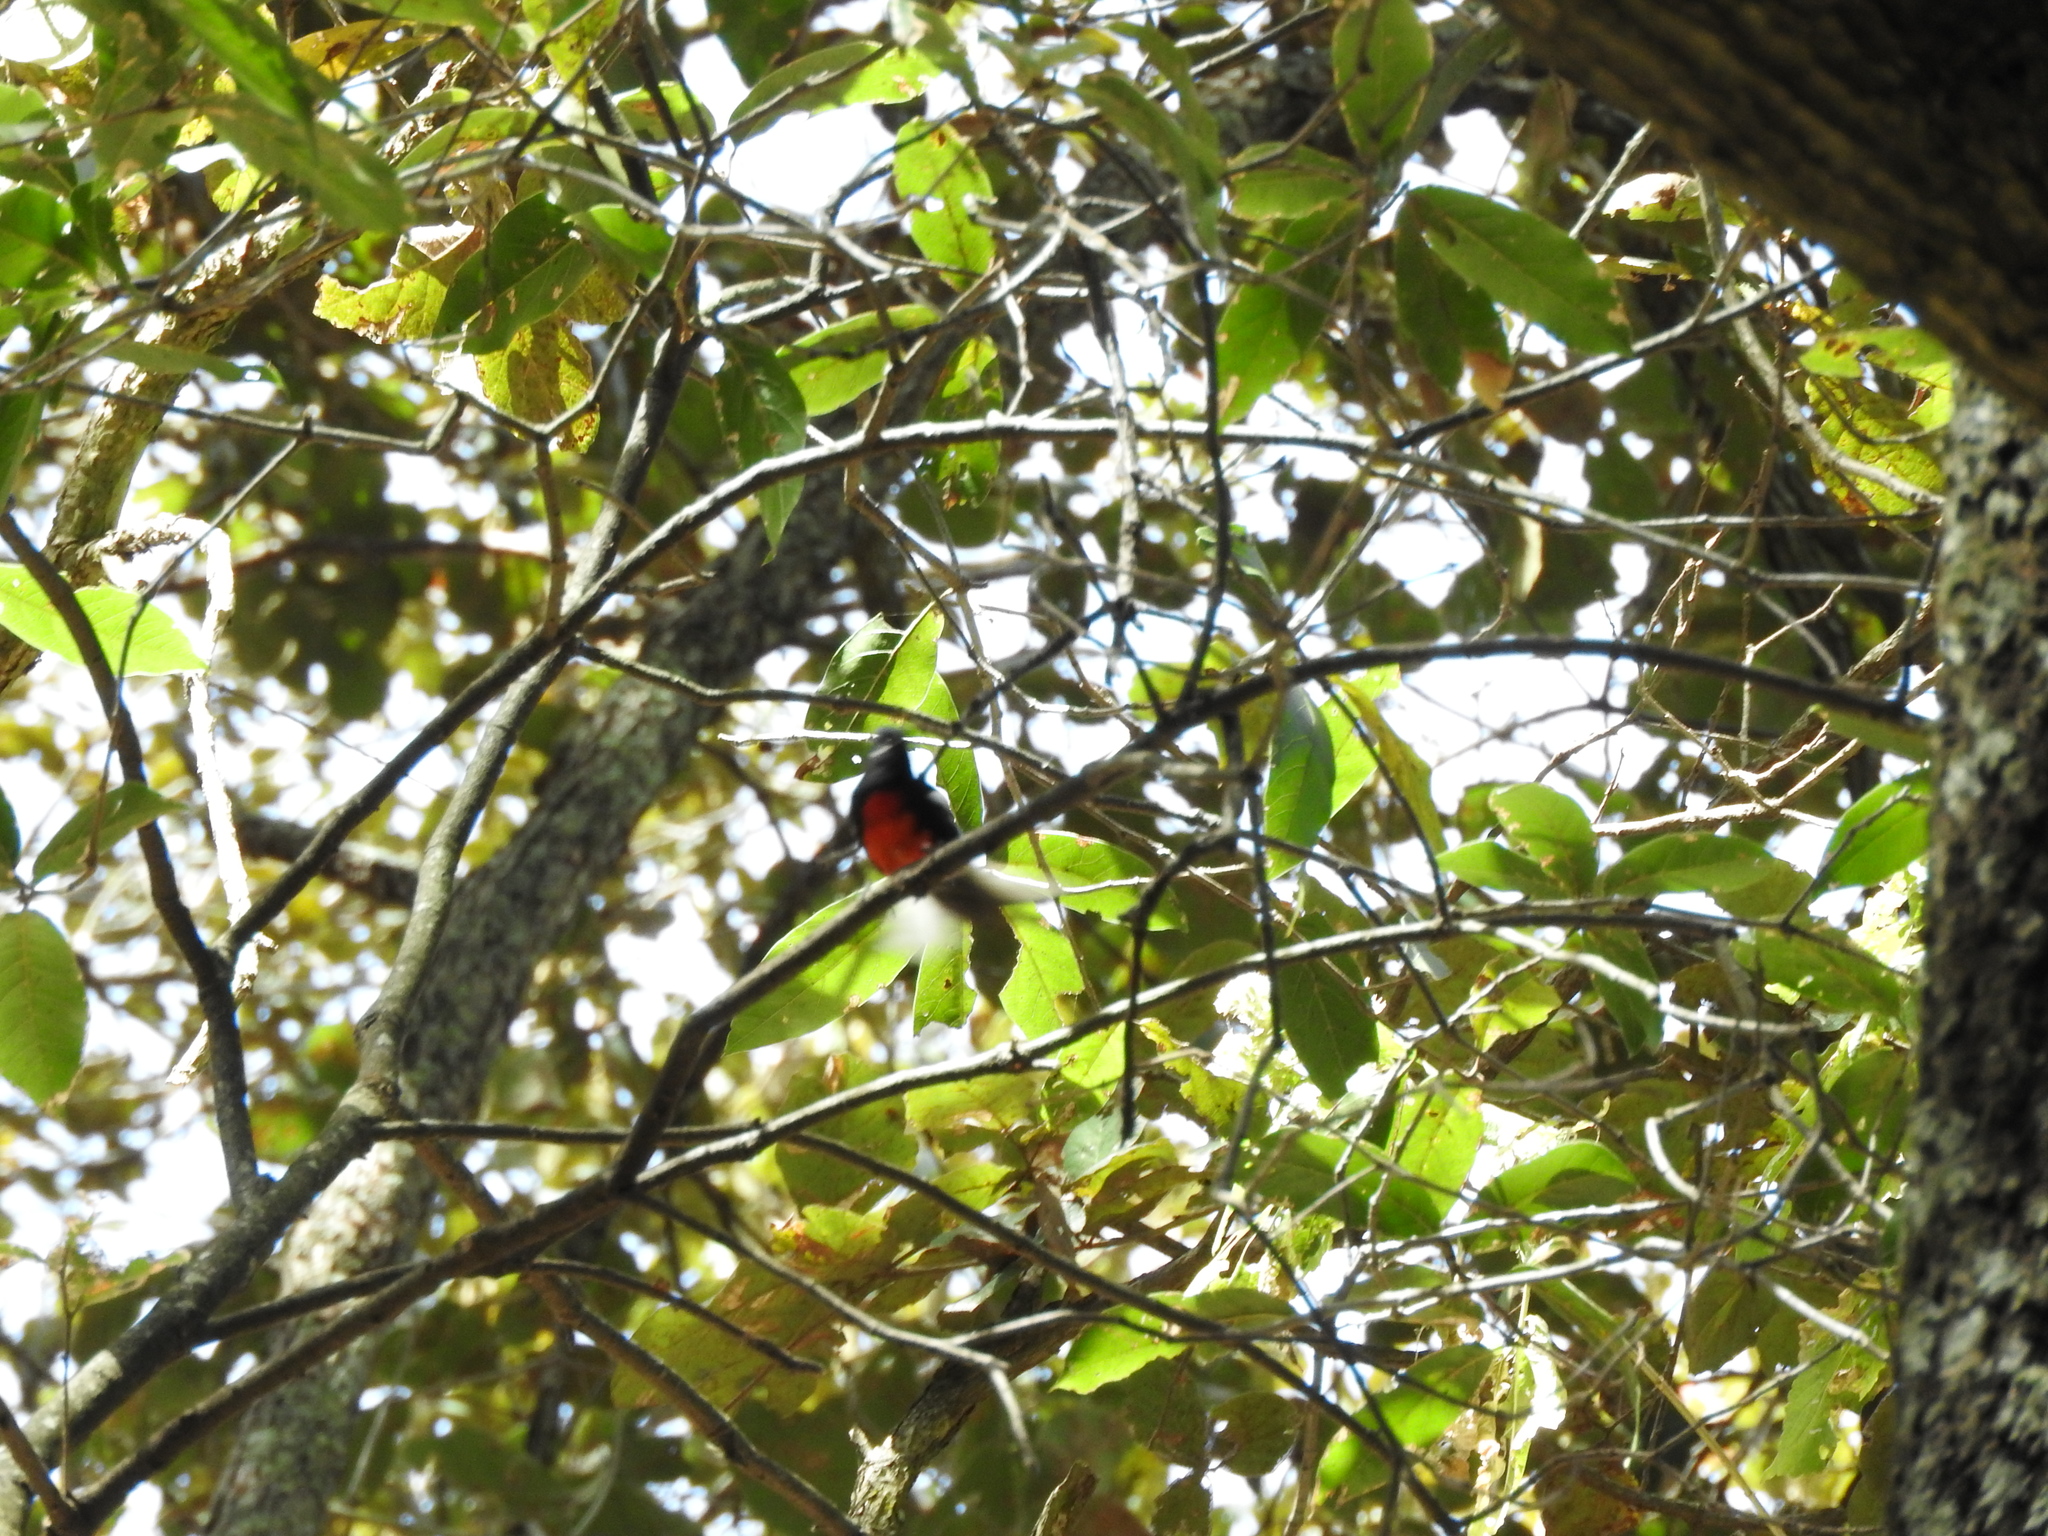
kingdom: Animalia
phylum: Chordata
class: Aves
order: Passeriformes
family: Parulidae
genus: Myioborus
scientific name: Myioborus pictus
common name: Painted whitestart
